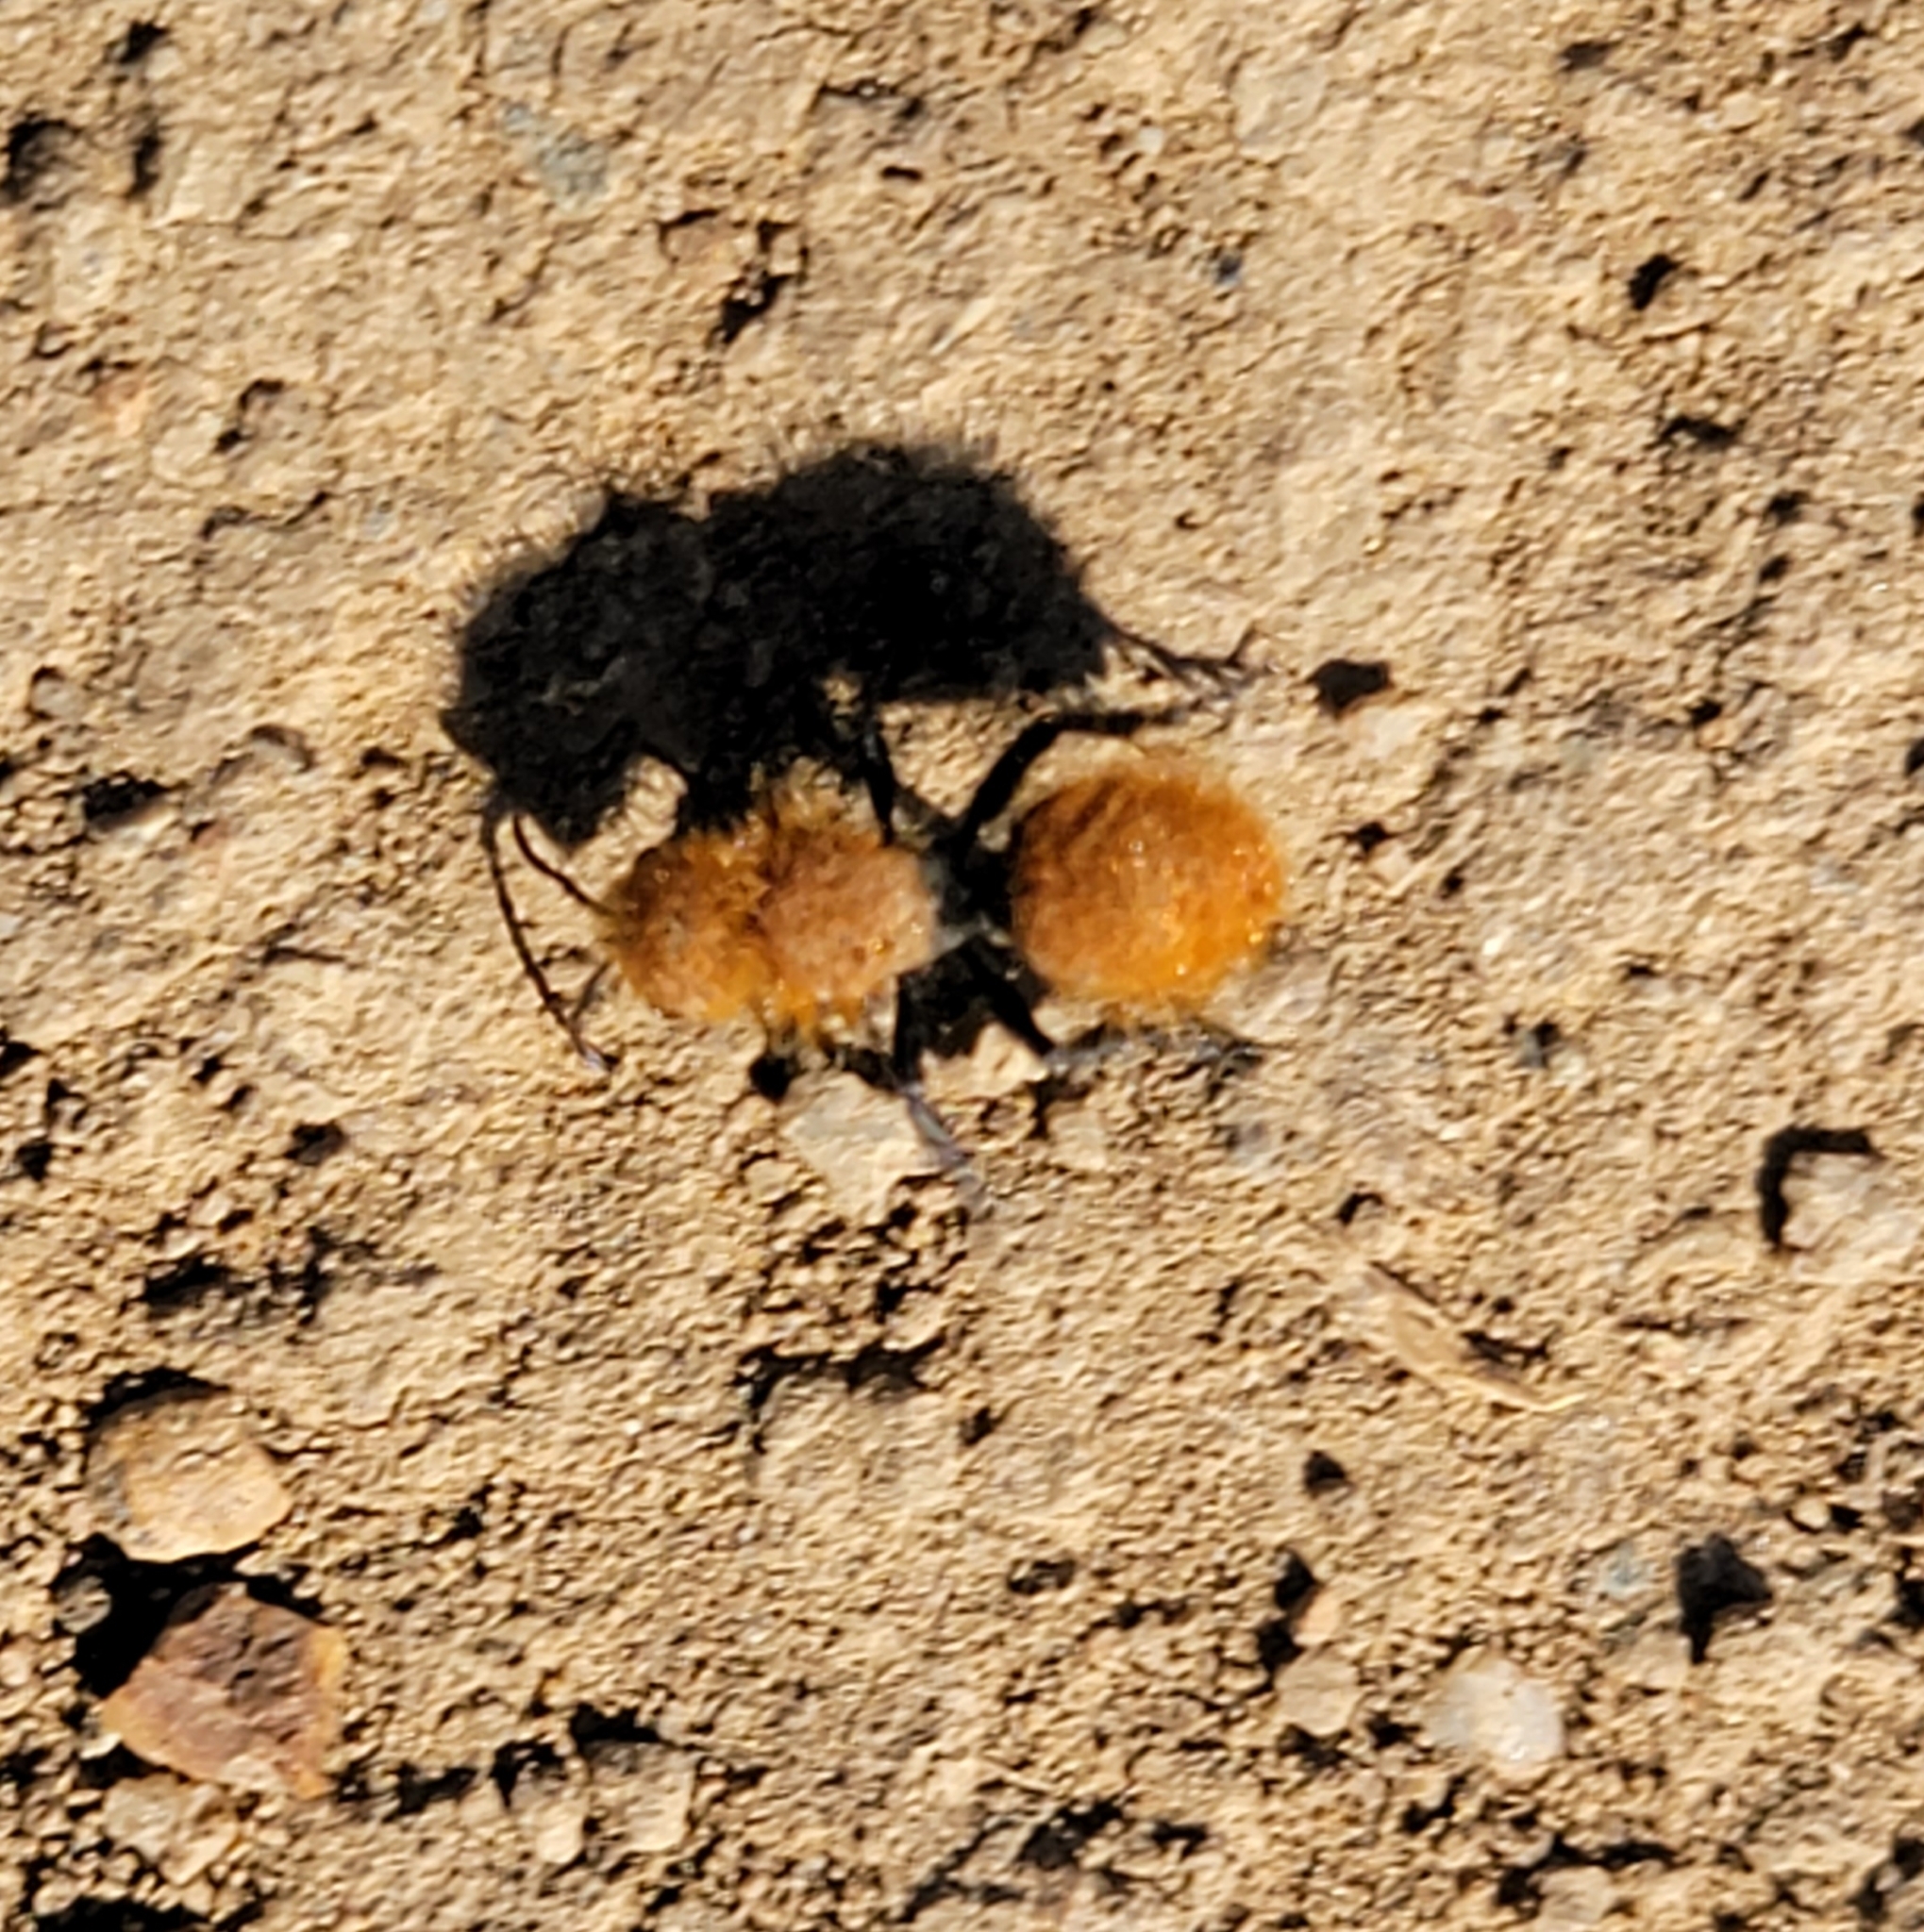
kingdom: Animalia
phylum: Arthropoda
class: Insecta
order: Hymenoptera
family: Mutillidae
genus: Dasymutilla
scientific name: Dasymutilla
